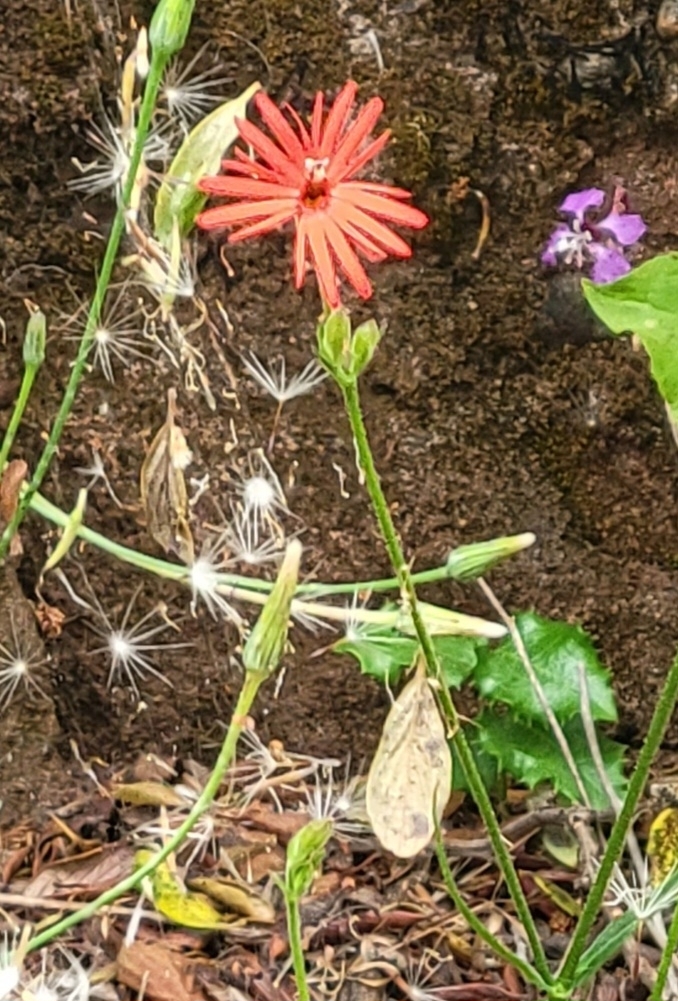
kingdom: Plantae
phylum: Tracheophyta
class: Magnoliopsida
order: Caryophyllales
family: Caryophyllaceae
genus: Silene
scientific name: Silene laciniata
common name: Indian-pink
